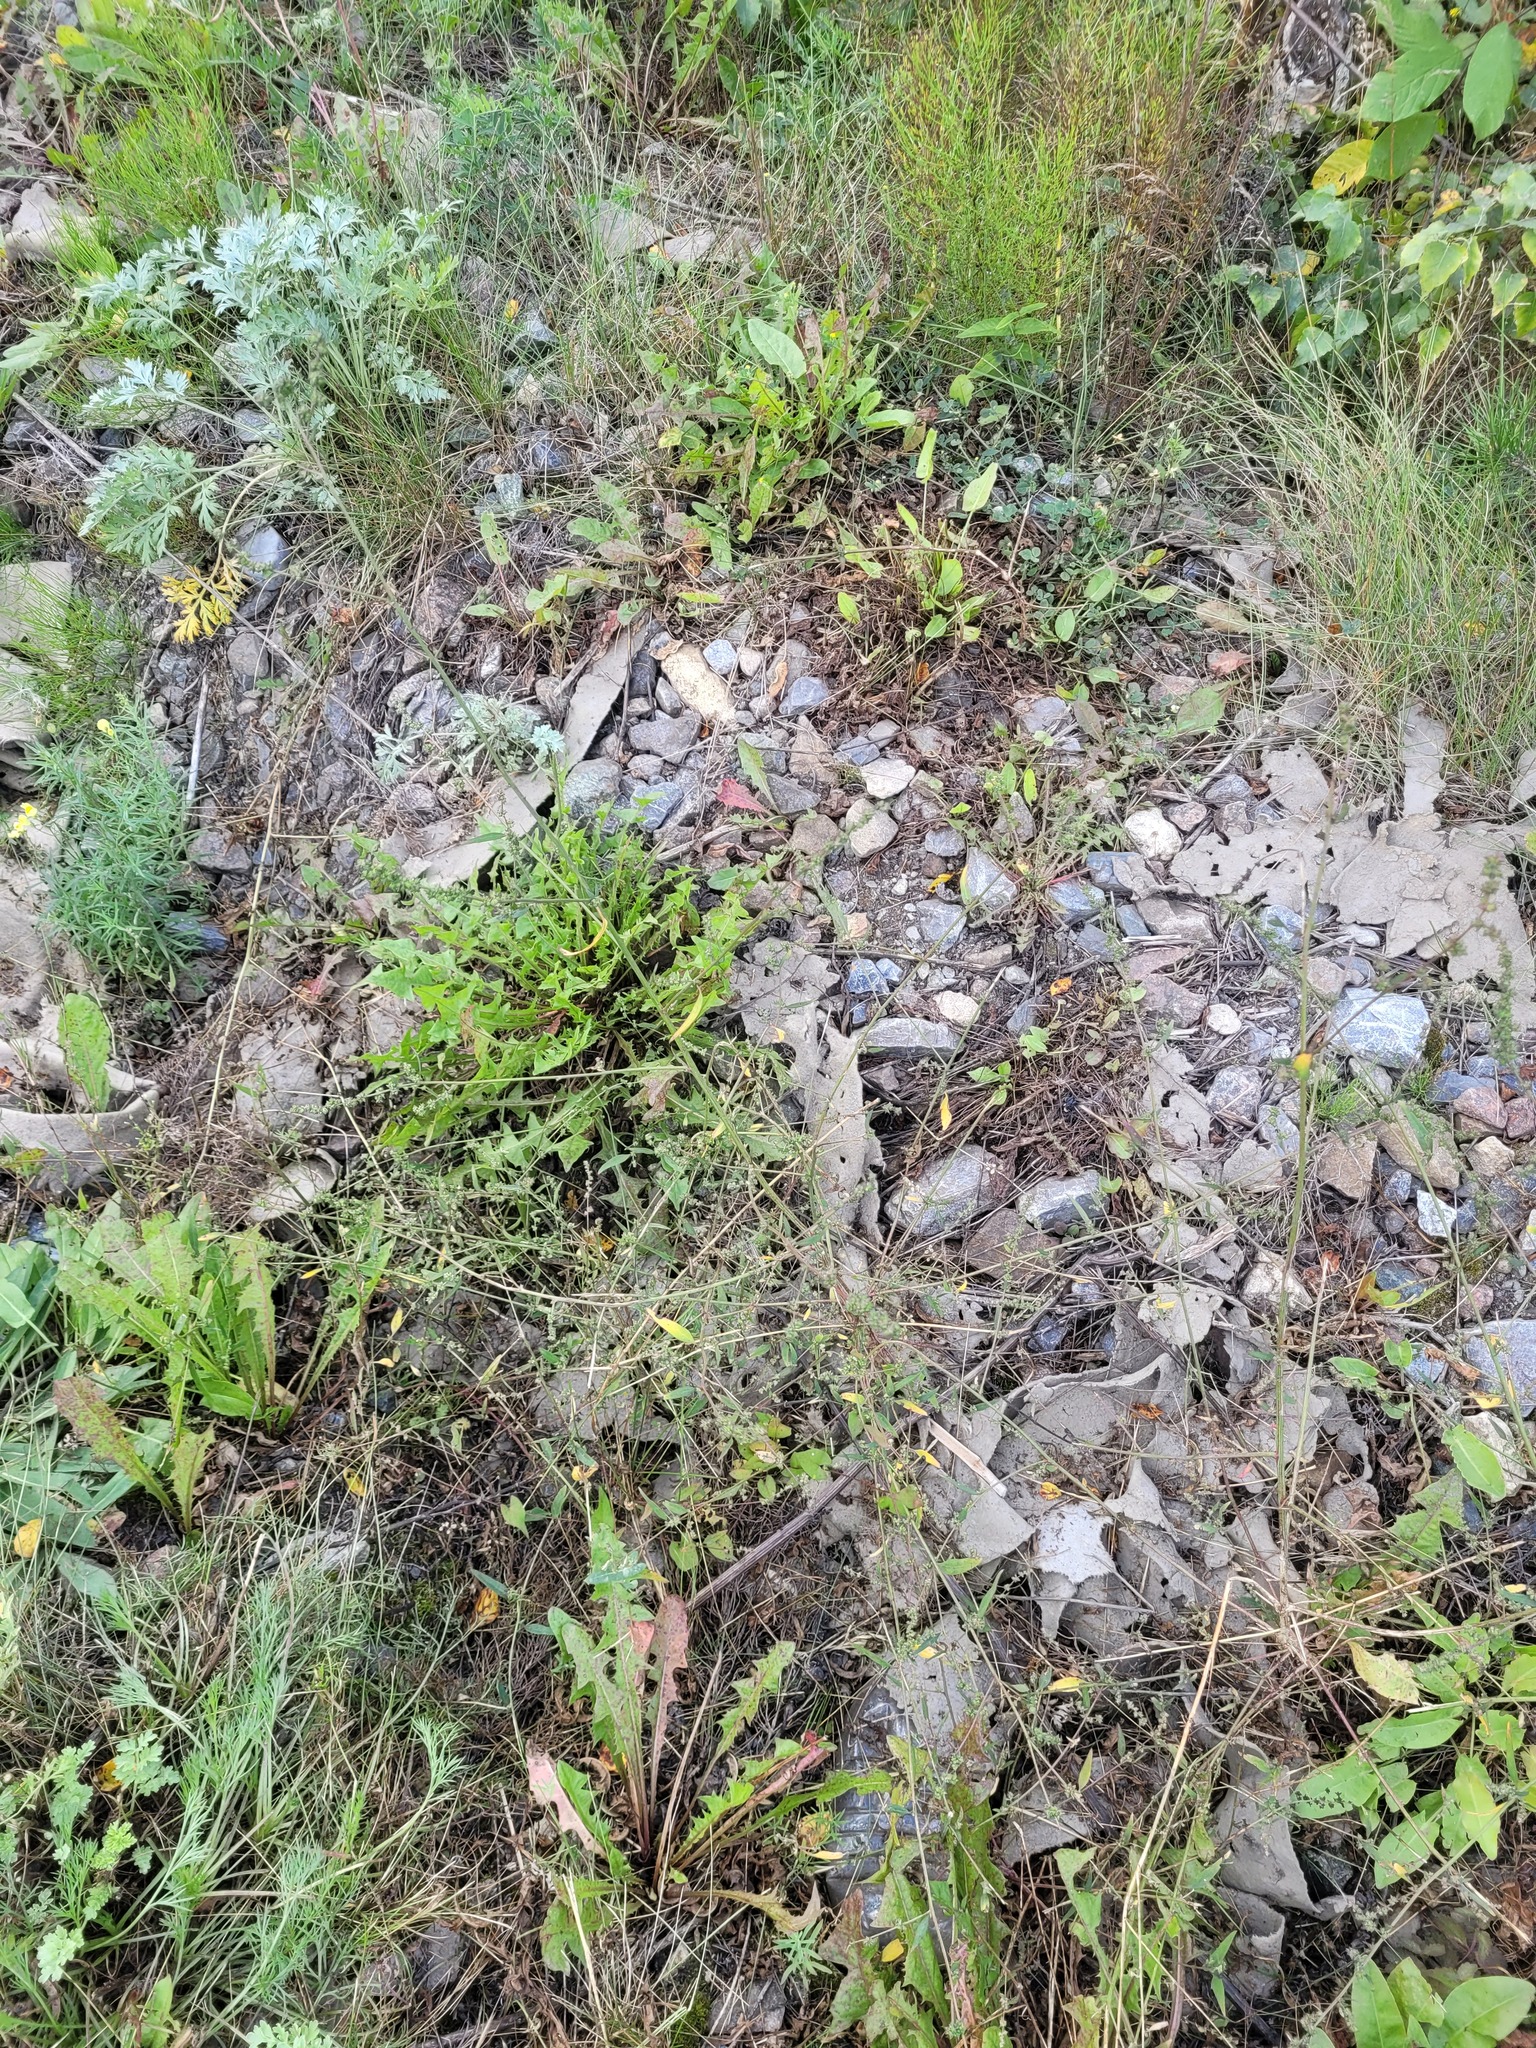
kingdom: Plantae
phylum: Tracheophyta
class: Magnoliopsida
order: Caryophyllales
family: Amaranthaceae
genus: Atriplex
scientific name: Atriplex patula
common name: Common orache
